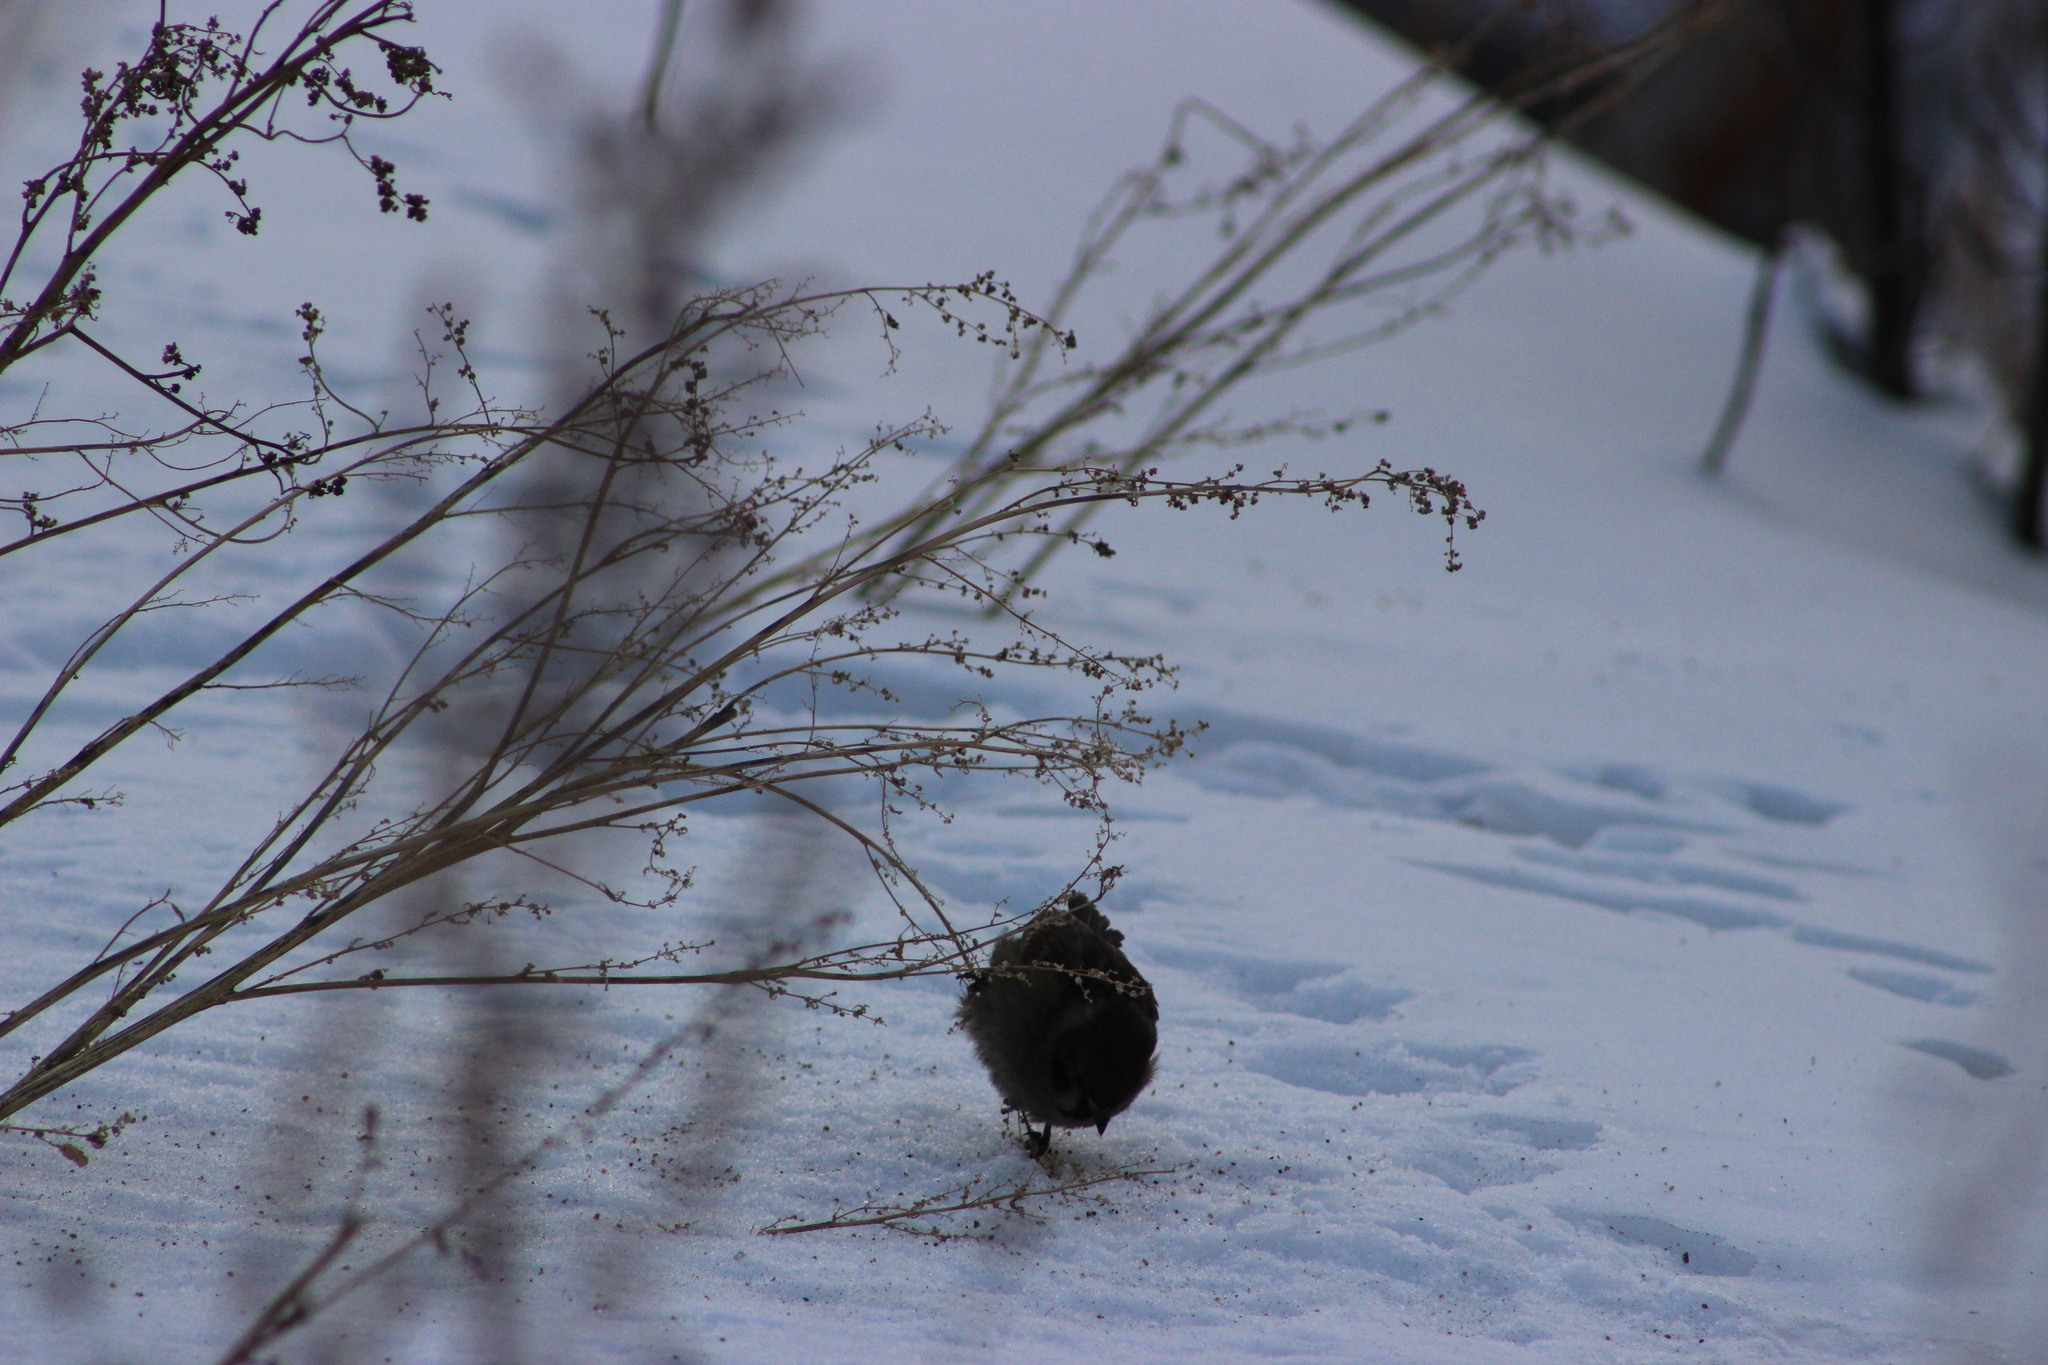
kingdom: Animalia
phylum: Chordata
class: Aves
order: Passeriformes
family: Passeridae
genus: Passer
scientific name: Passer montanus
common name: Eurasian tree sparrow
